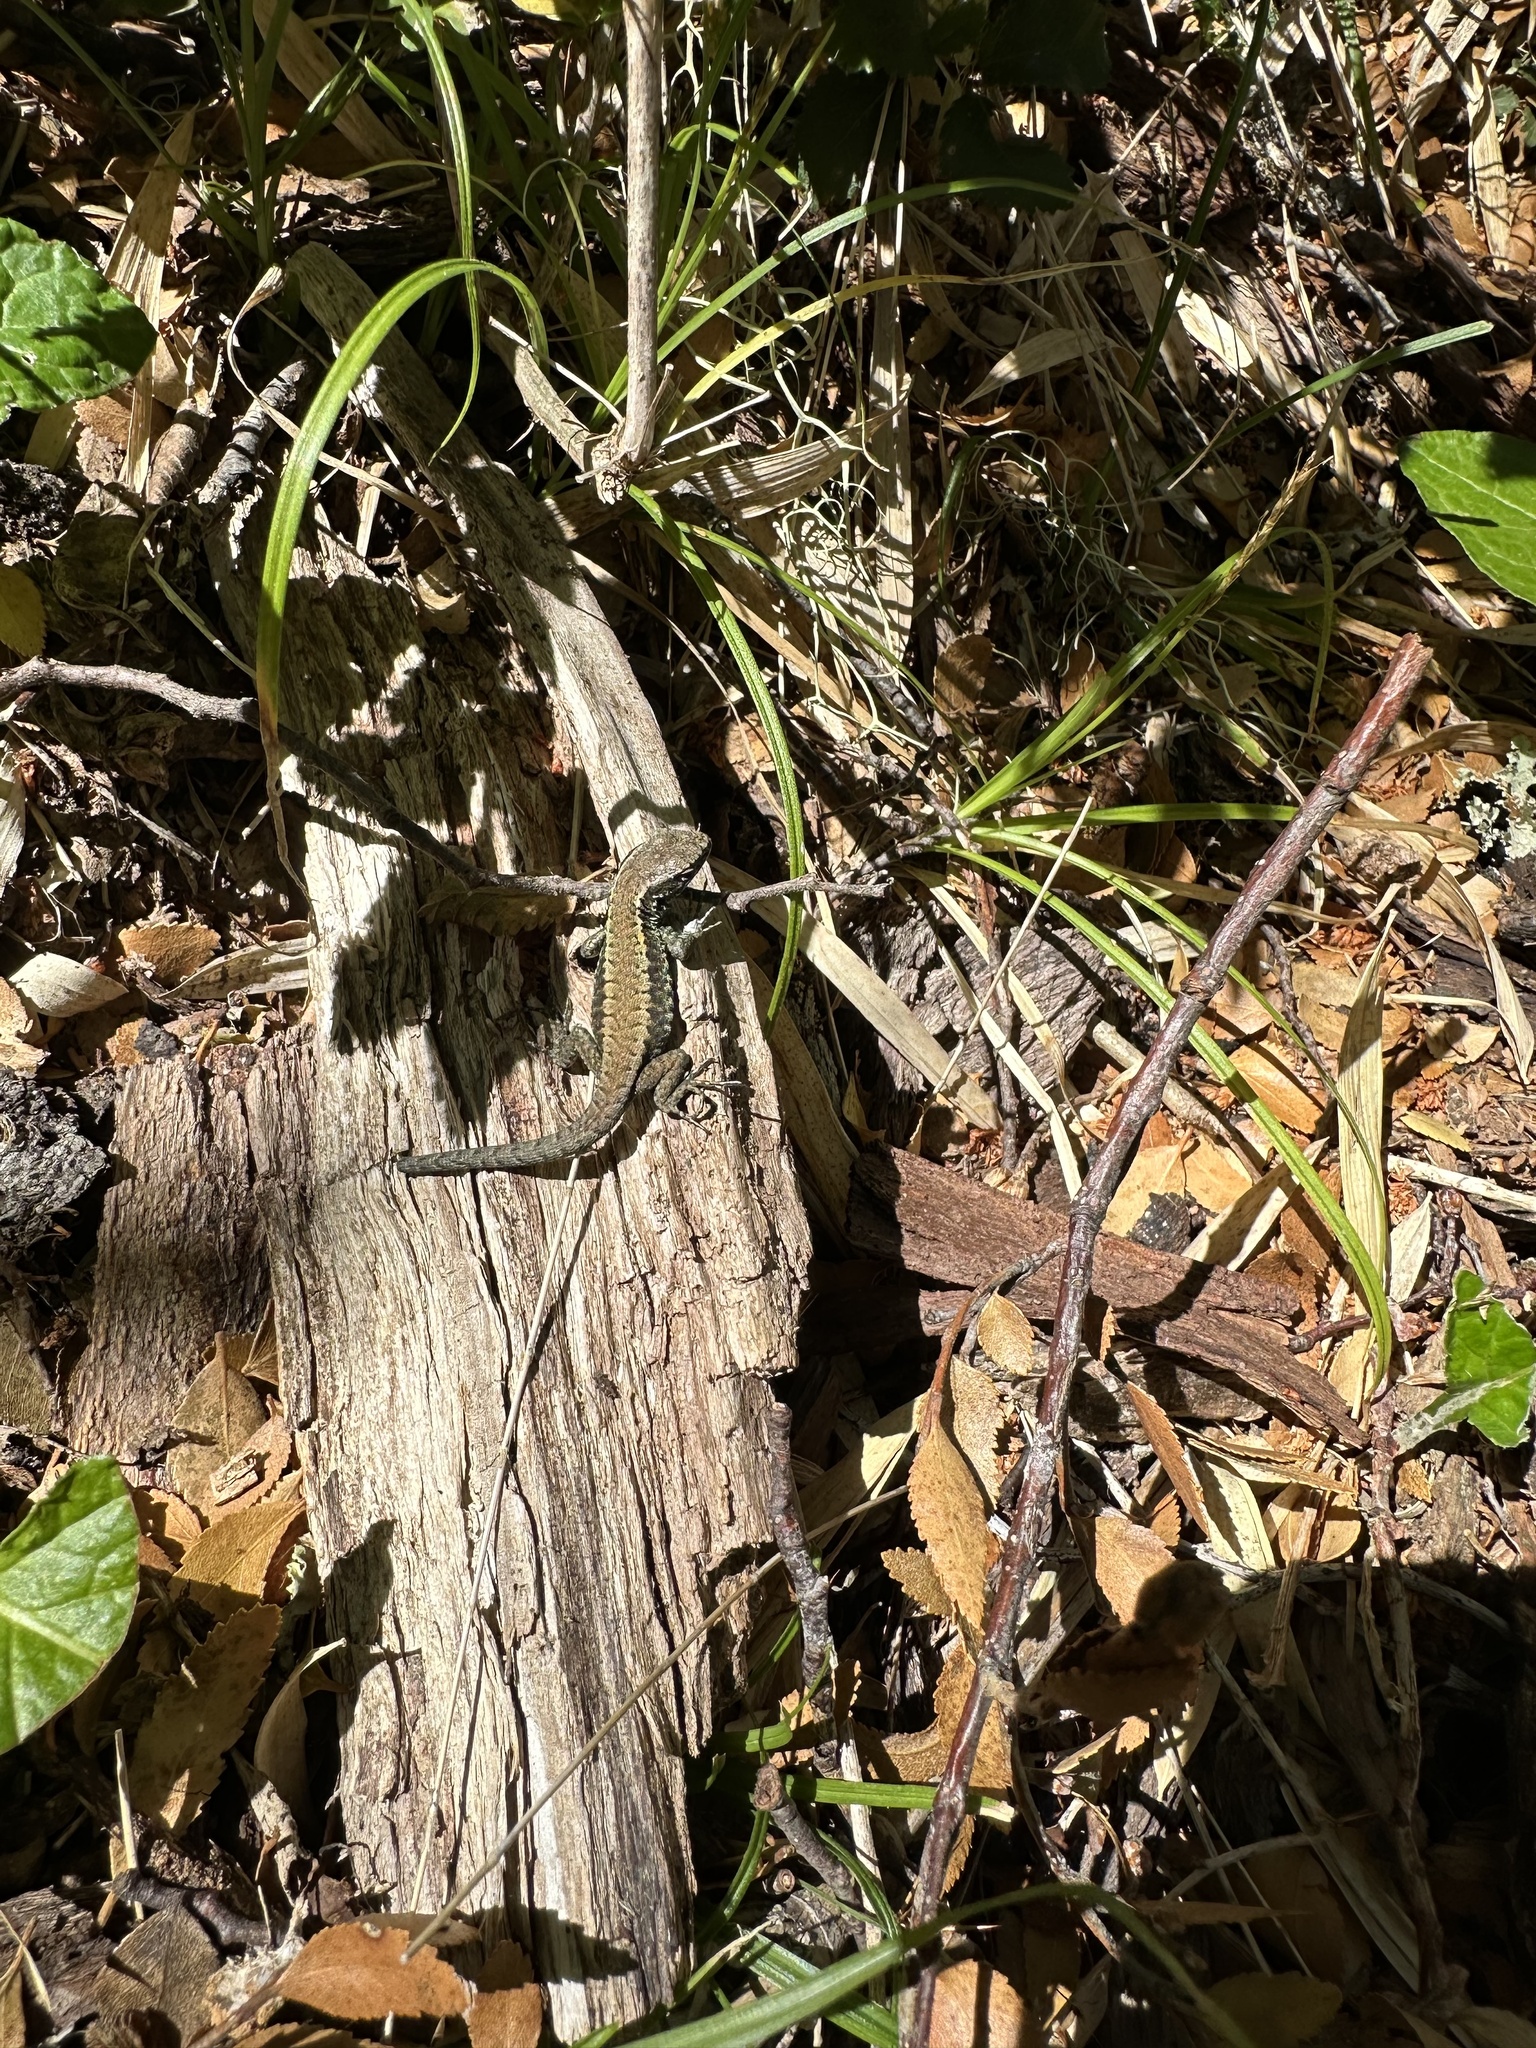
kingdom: Animalia
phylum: Chordata
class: Squamata
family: Liolaemidae
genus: Liolaemus
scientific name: Liolaemus pictus
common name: Painted tree iguana
